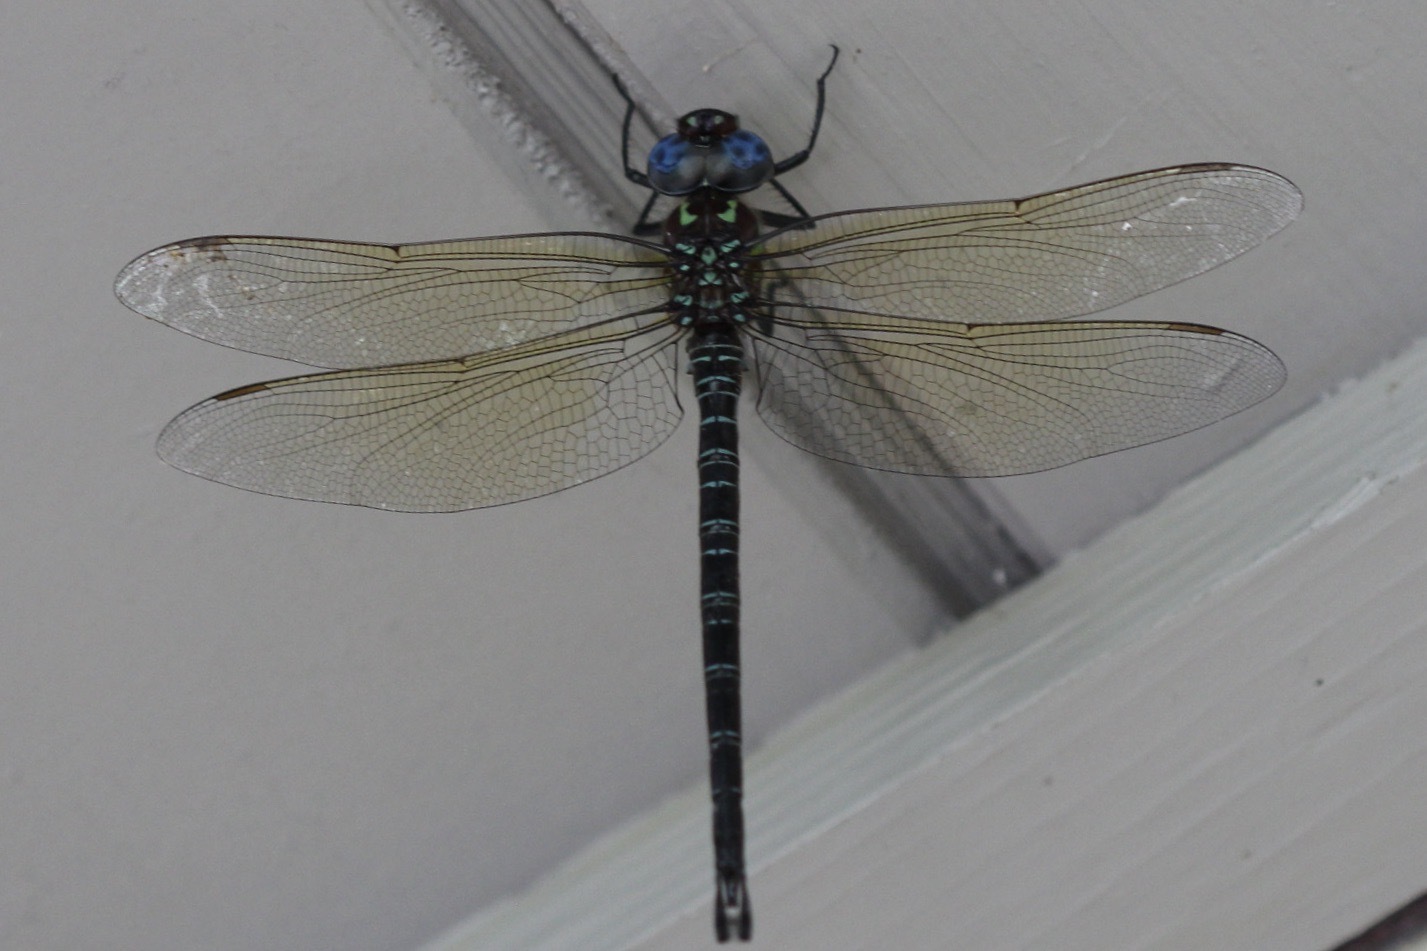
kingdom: Animalia
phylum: Arthropoda
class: Insecta
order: Odonata
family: Aeshnidae
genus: Epiaeschna
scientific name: Epiaeschna heros
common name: Swamp darner
